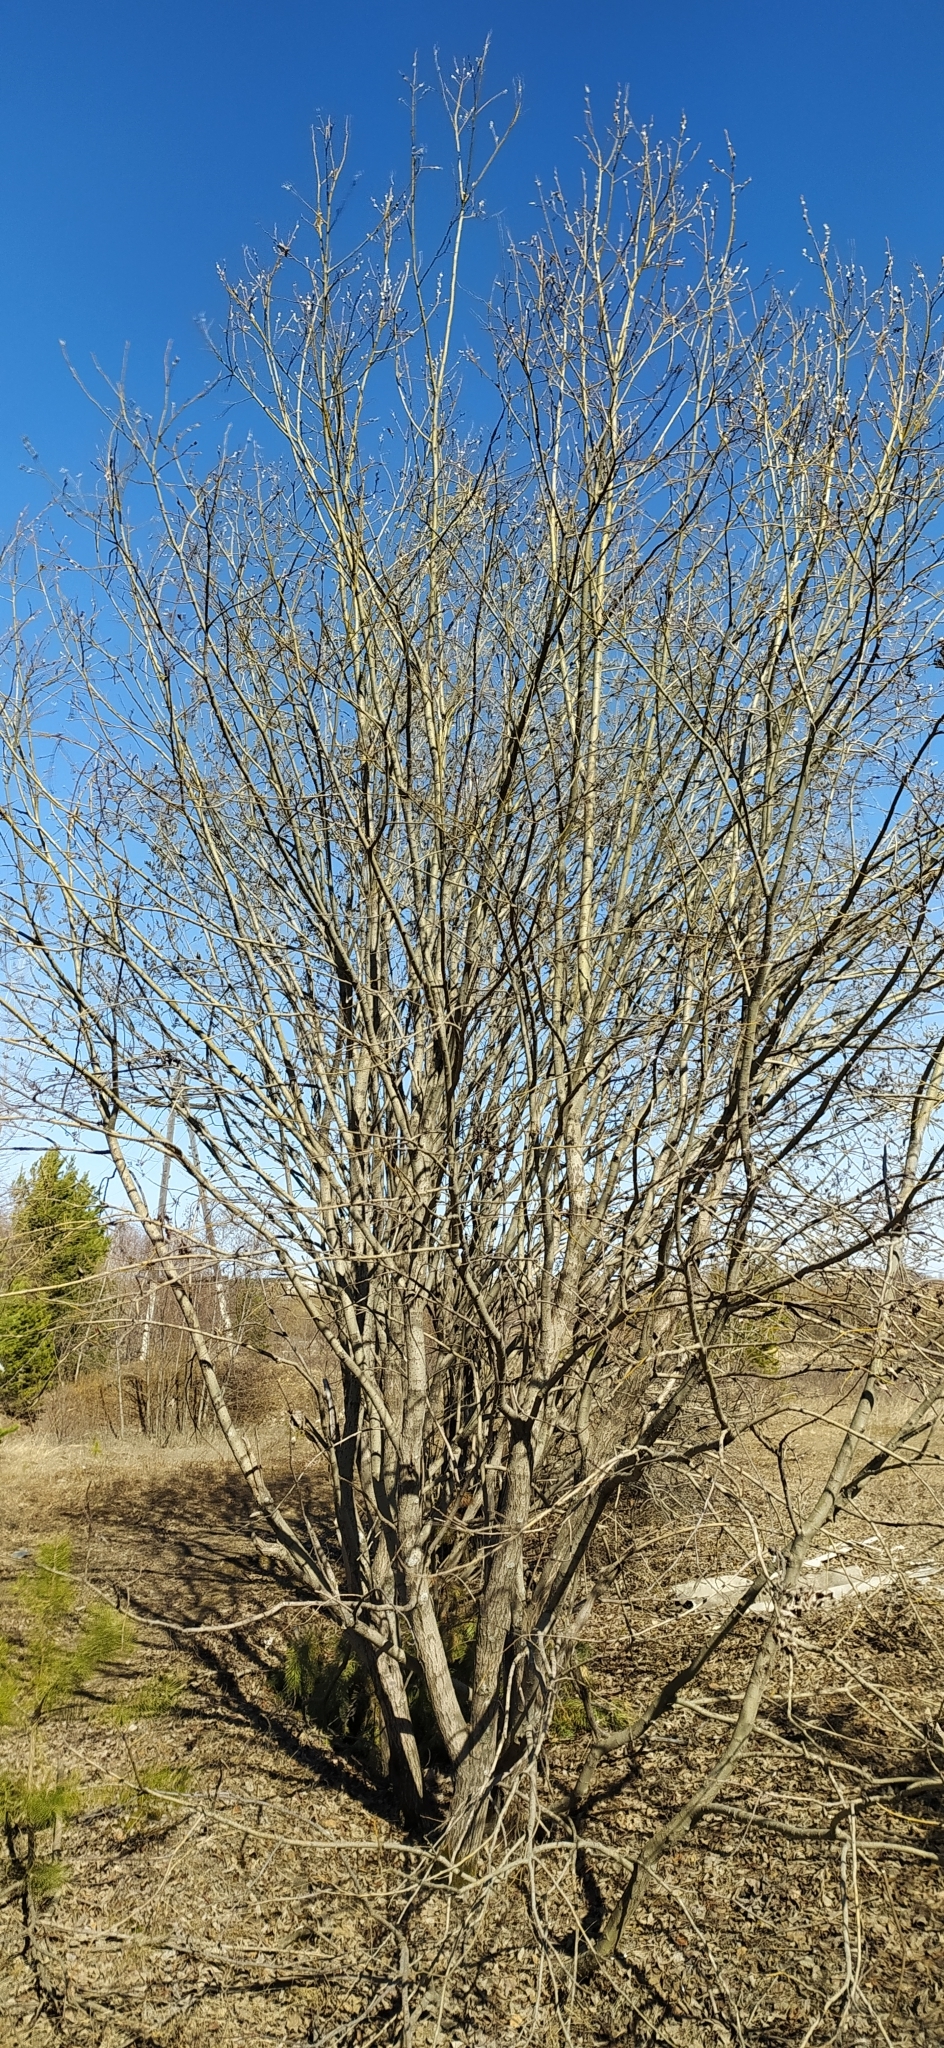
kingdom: Plantae
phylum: Tracheophyta
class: Magnoliopsida
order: Malpighiales
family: Salicaceae
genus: Salix
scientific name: Salix caprea
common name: Goat willow
